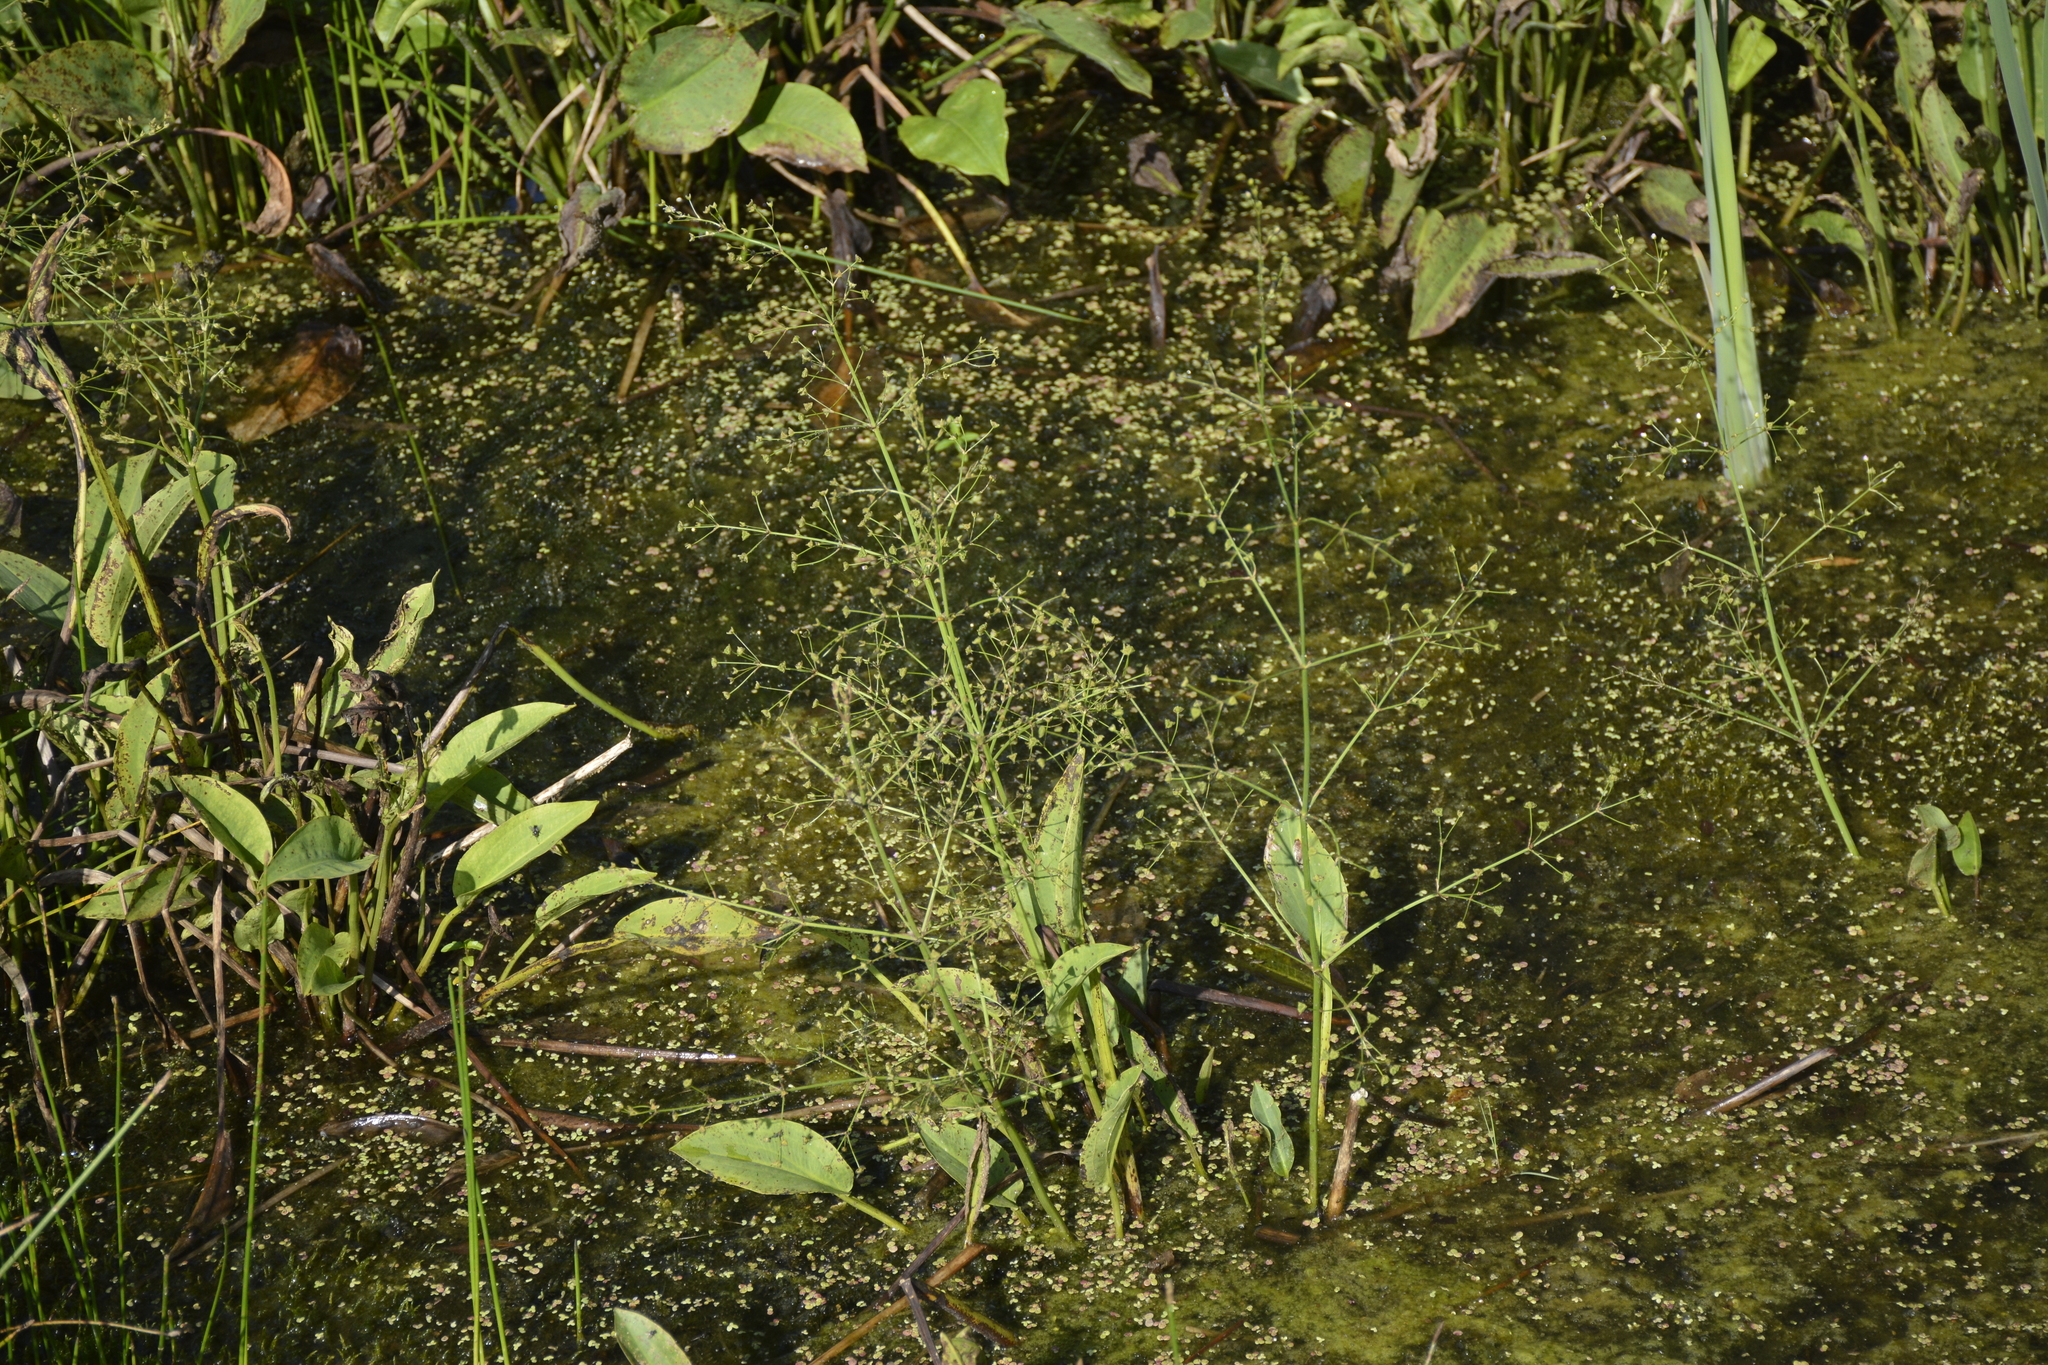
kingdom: Plantae
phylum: Tracheophyta
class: Liliopsida
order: Alismatales
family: Alismataceae
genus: Alisma
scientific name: Alisma plantago-aquatica
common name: Water-plantain
